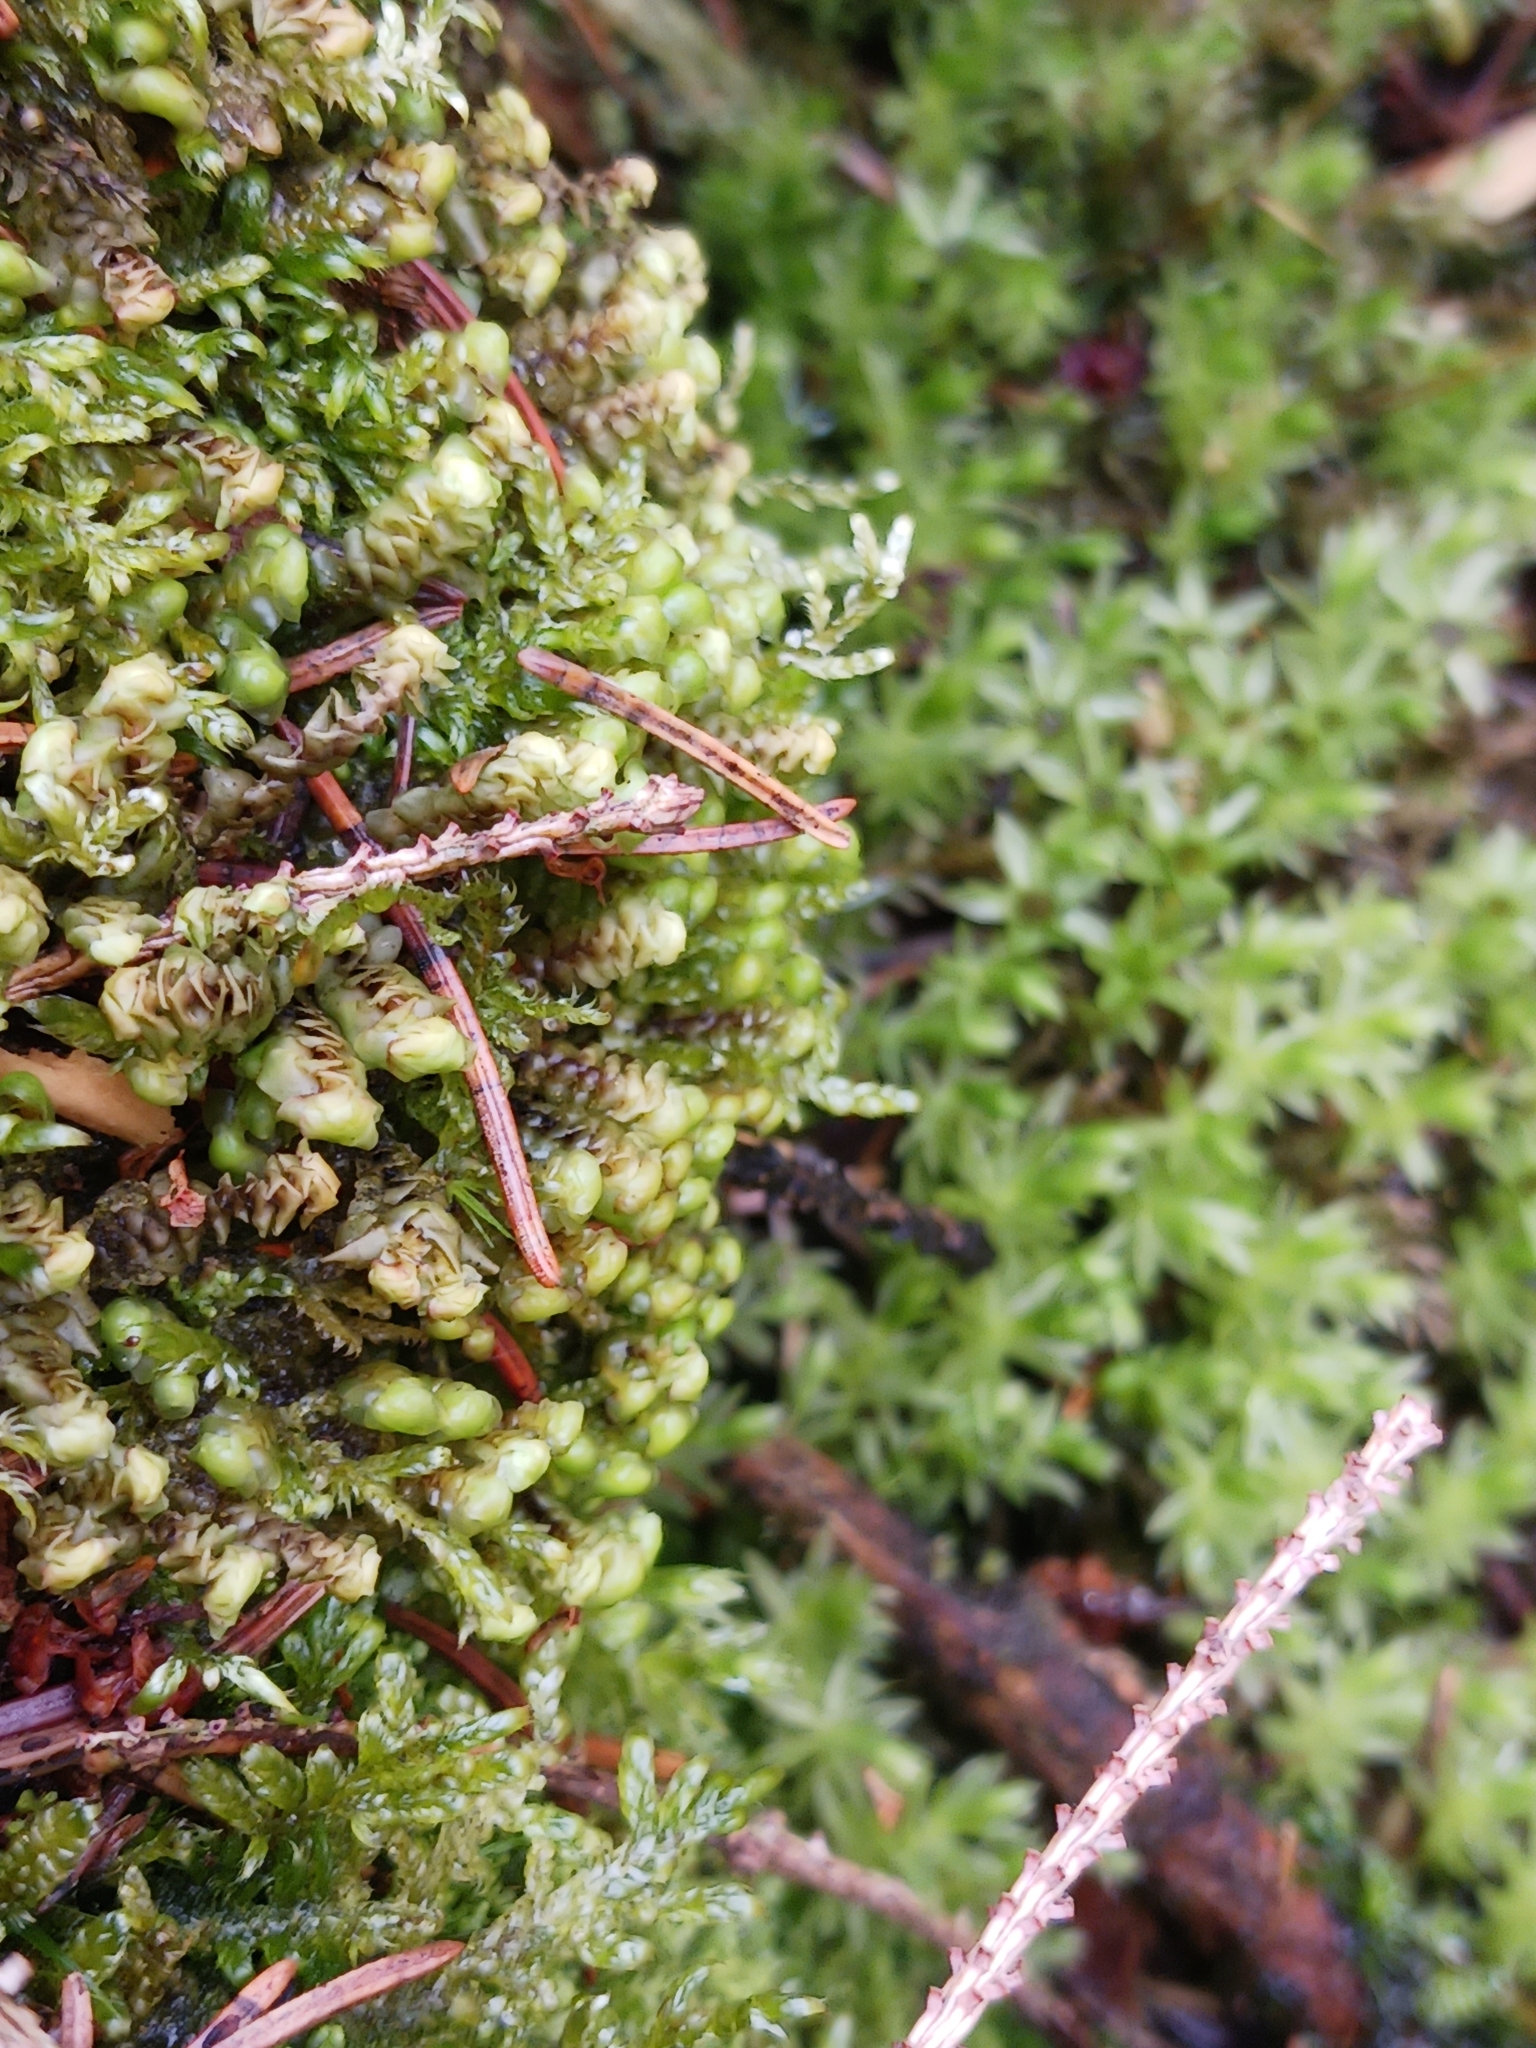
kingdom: Plantae
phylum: Marchantiophyta
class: Jungermanniopsida
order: Jungermanniales
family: Scapaniaceae
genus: Scapania
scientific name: Scapania nemorea
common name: Grove earwort
